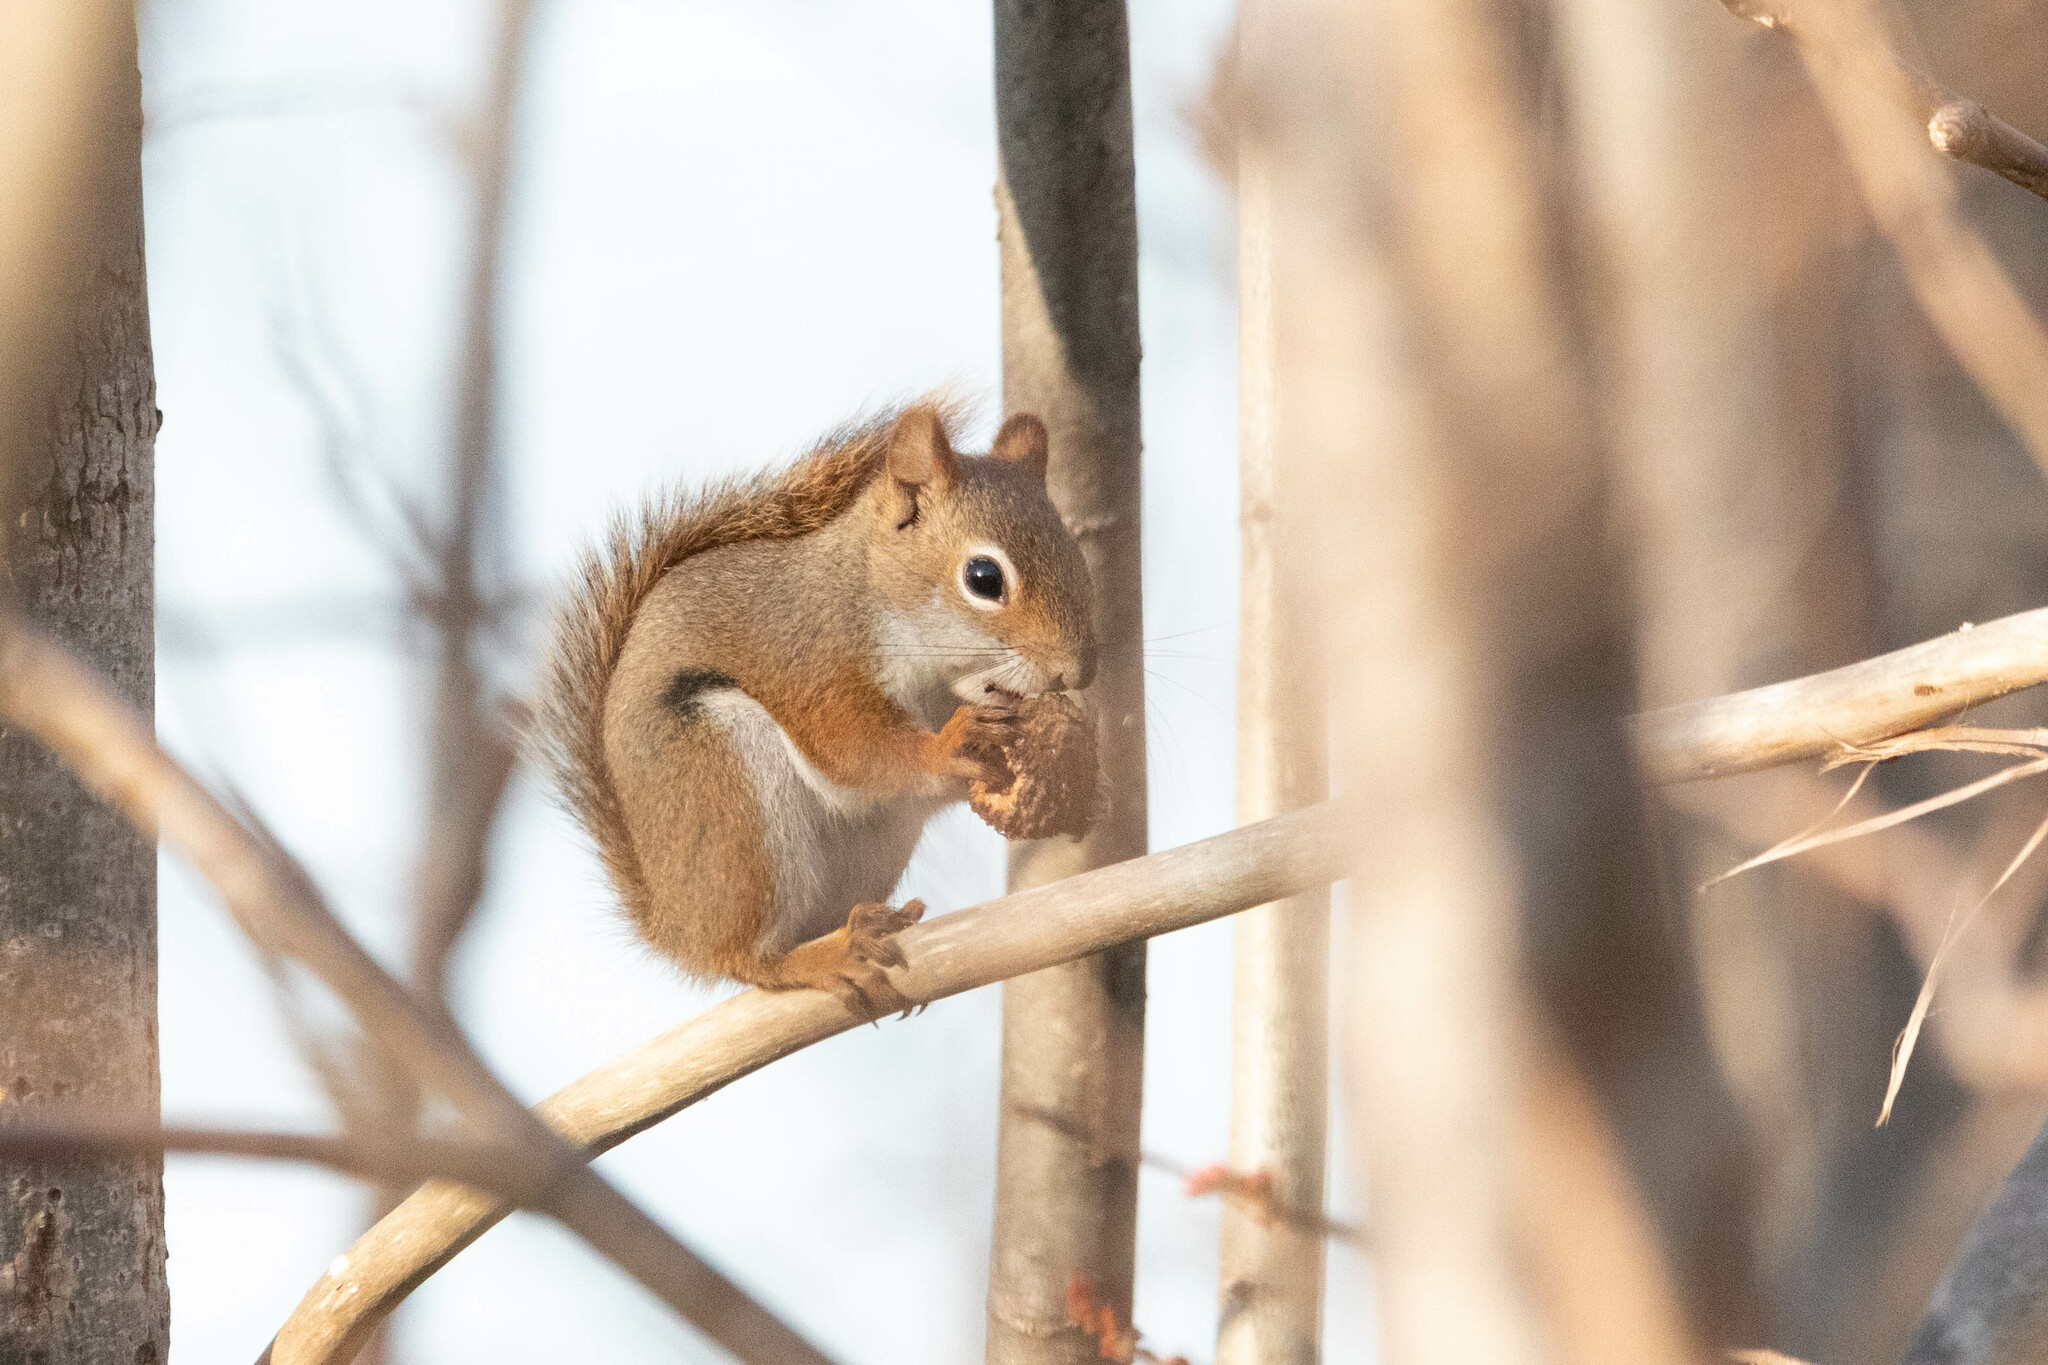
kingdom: Animalia
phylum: Chordata
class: Mammalia
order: Rodentia
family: Sciuridae
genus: Tamiasciurus
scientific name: Tamiasciurus hudsonicus
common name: Red squirrel
